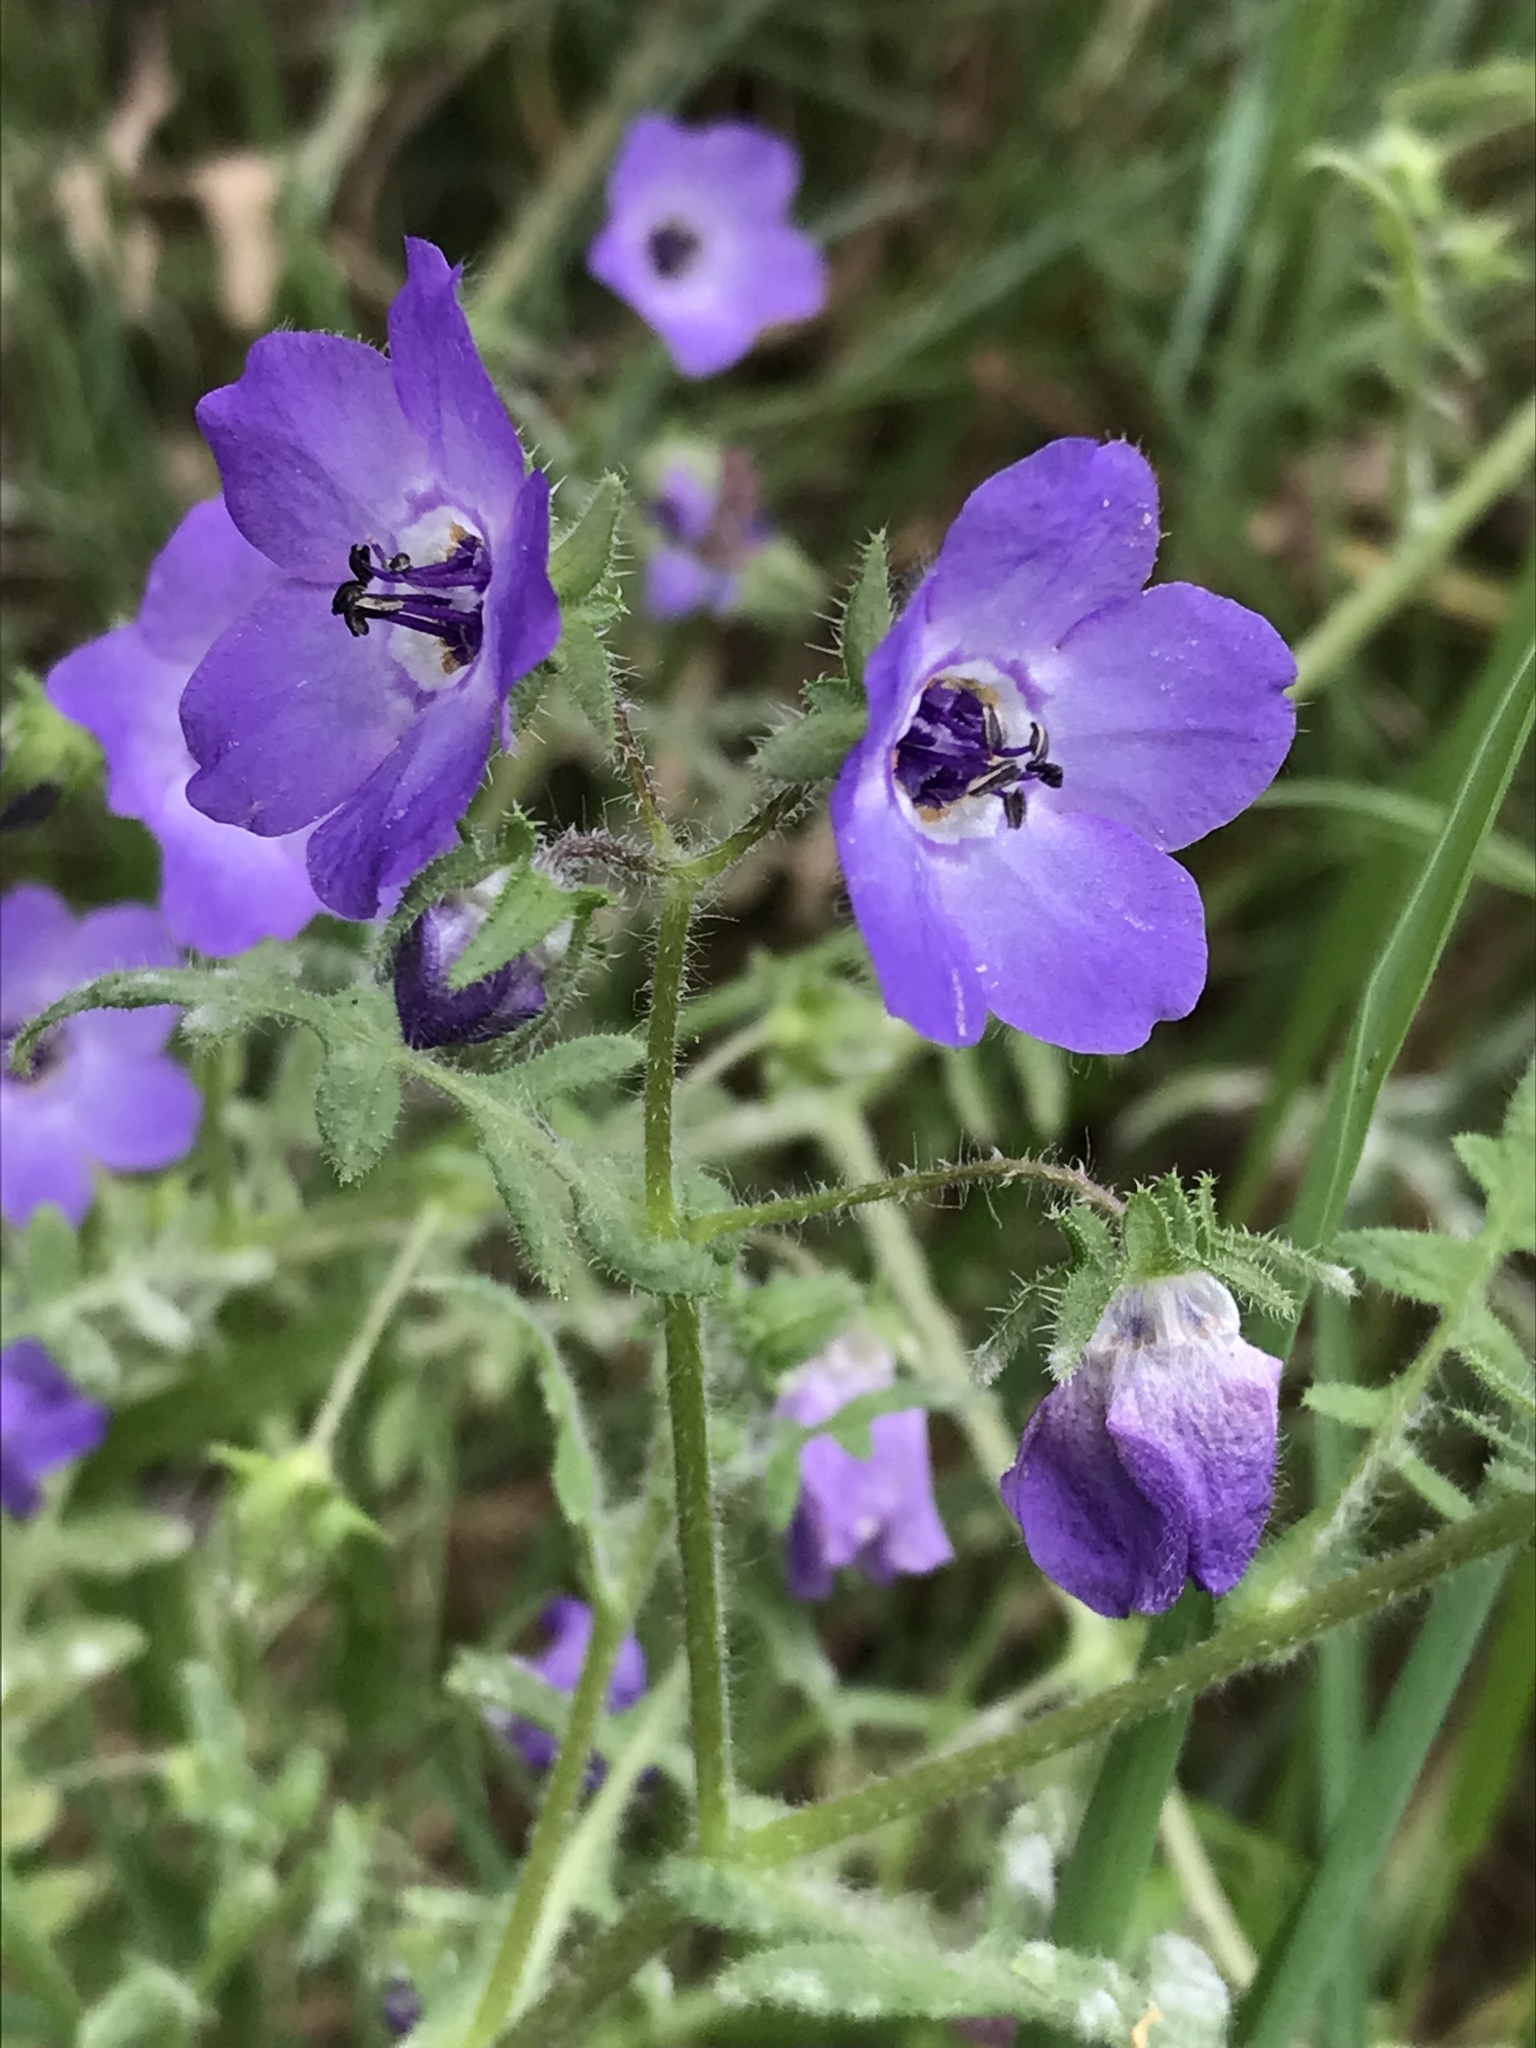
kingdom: Plantae
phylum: Tracheophyta
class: Magnoliopsida
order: Boraginales
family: Hydrophyllaceae
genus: Pholistoma
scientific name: Pholistoma auritum
